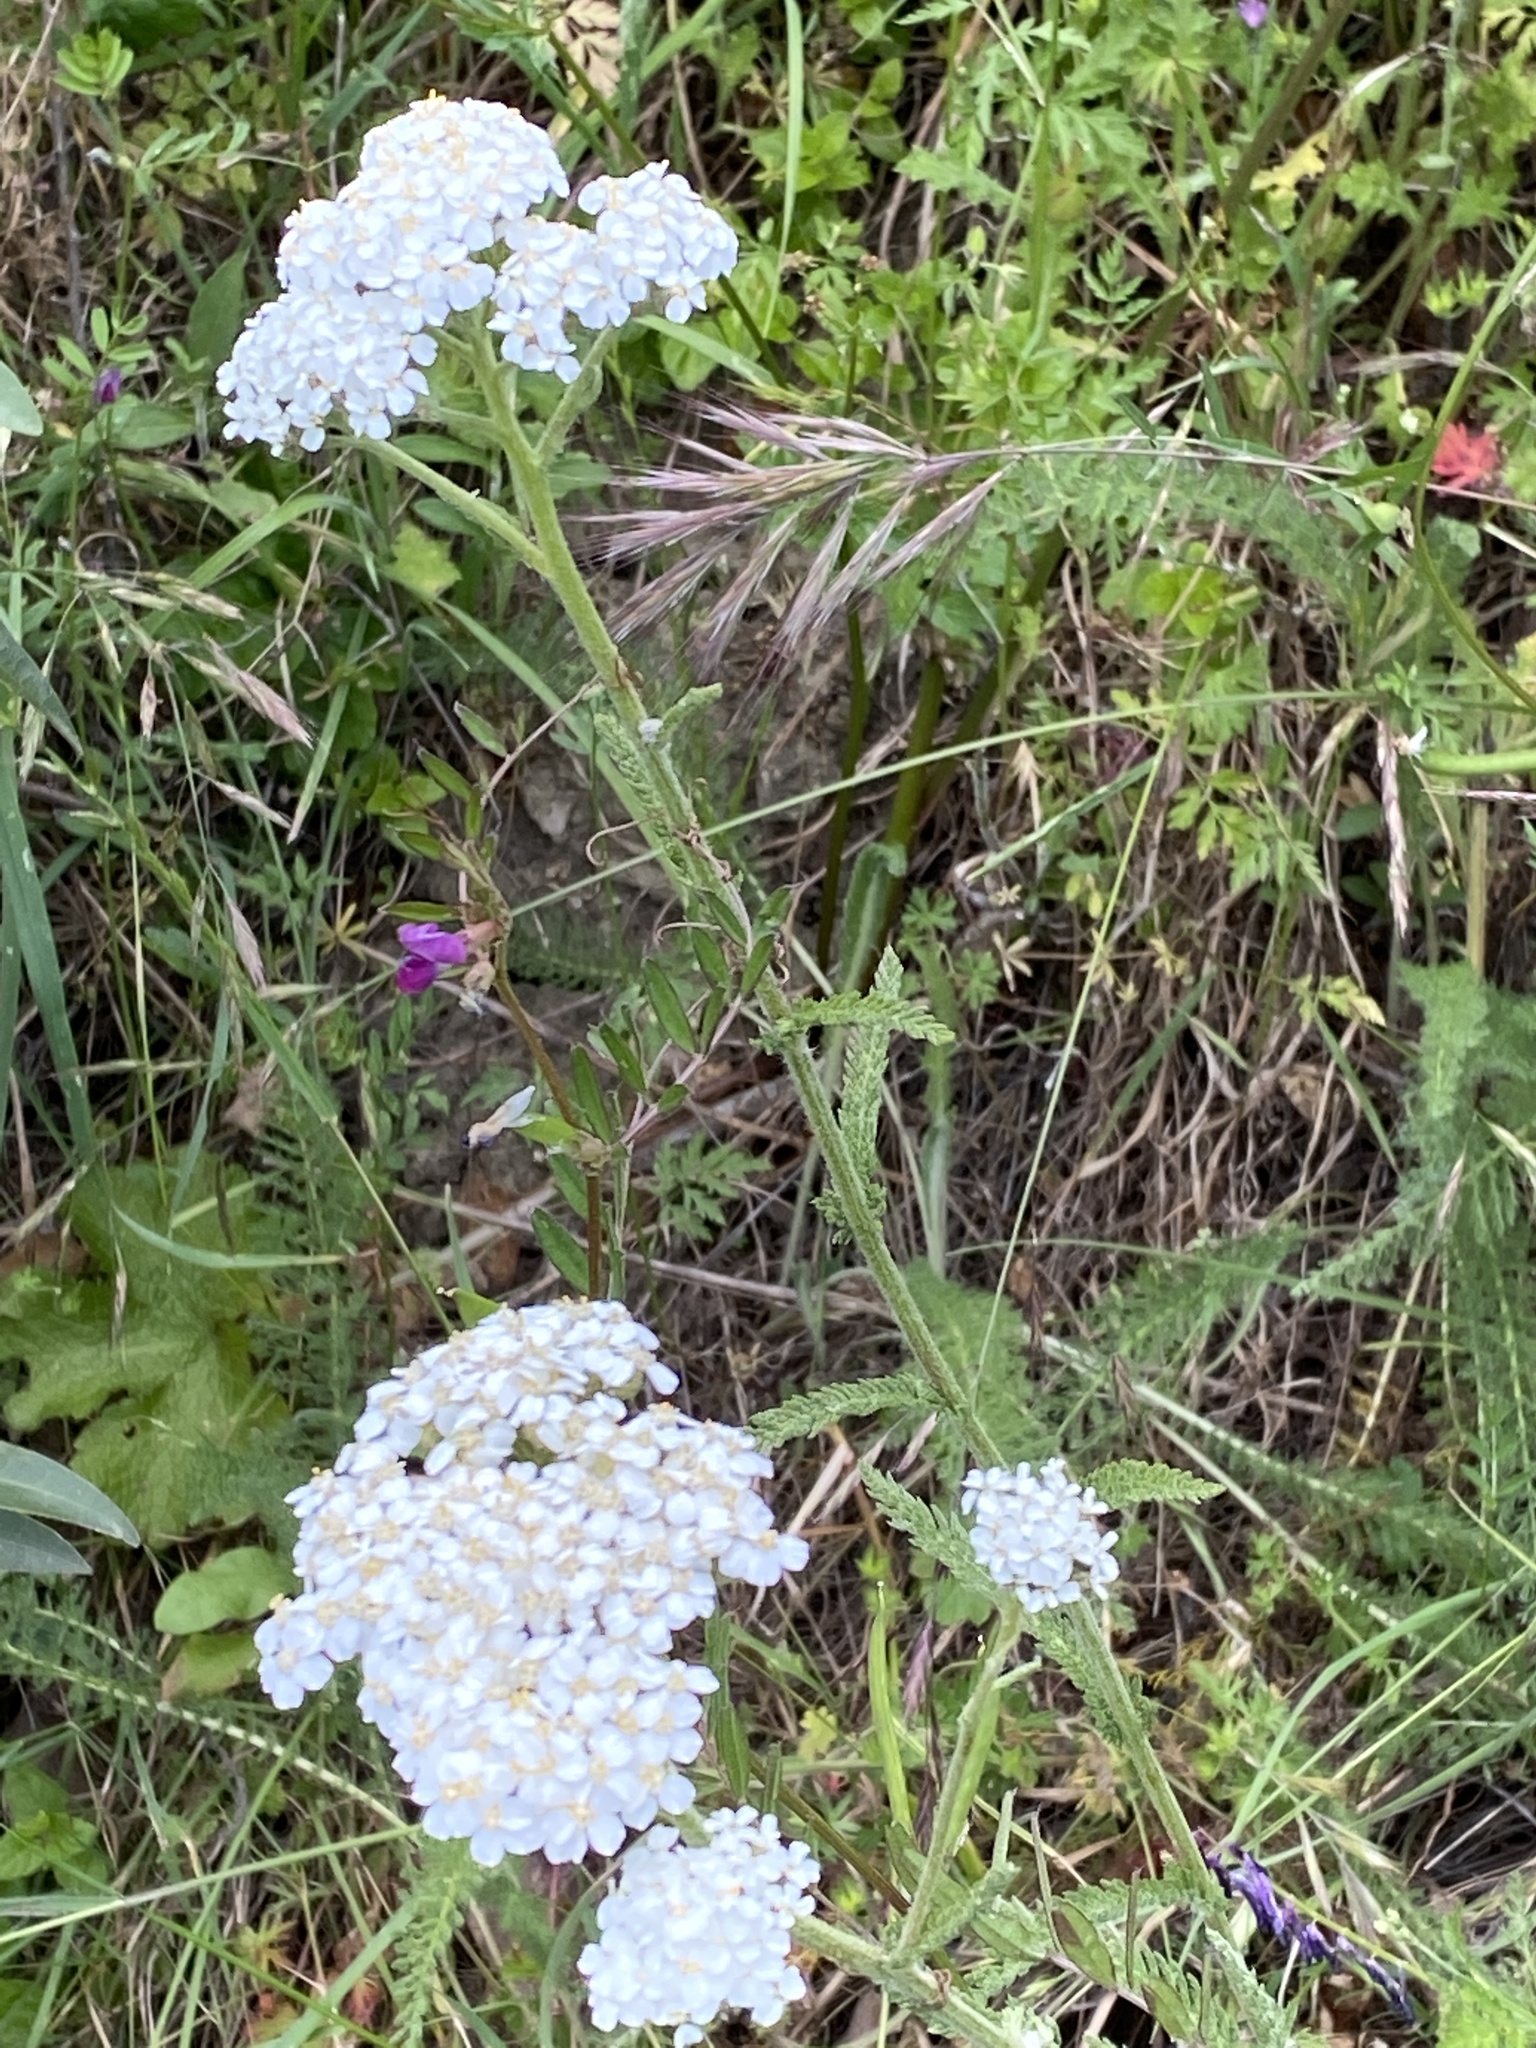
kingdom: Plantae
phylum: Tracheophyta
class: Magnoliopsida
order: Asterales
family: Asteraceae
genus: Achillea
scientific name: Achillea millefolium
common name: Yarrow
